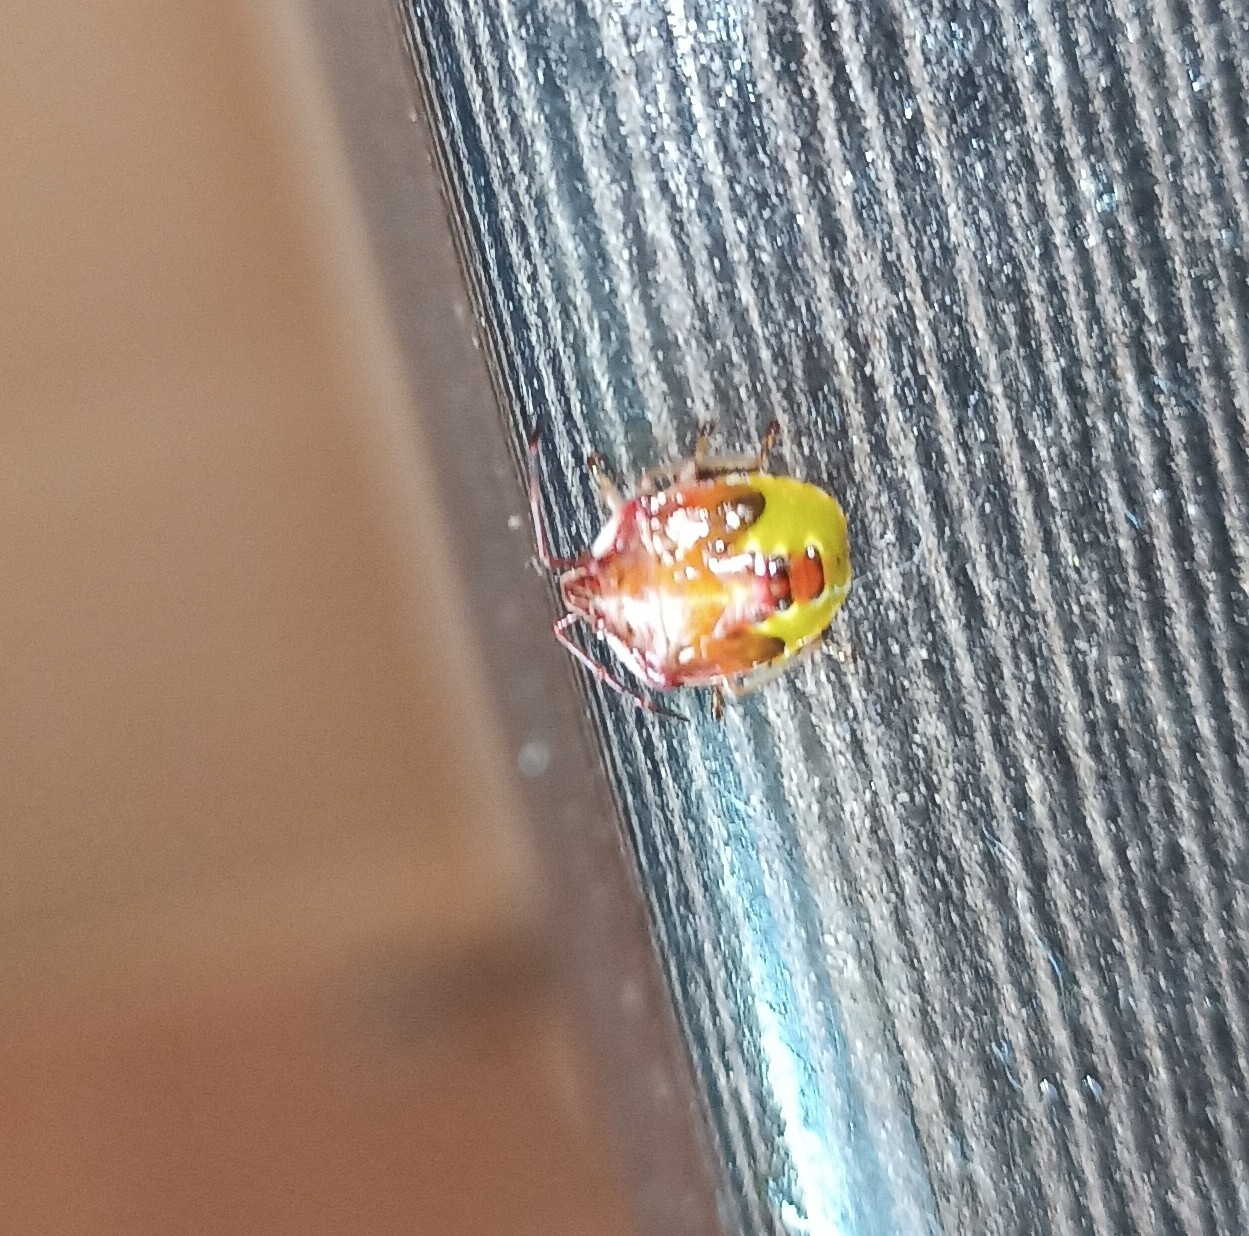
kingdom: Animalia
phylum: Arthropoda
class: Insecta
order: Hemiptera
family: Acanthosomatidae
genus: Elasmucha
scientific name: Elasmucha ferrugata
